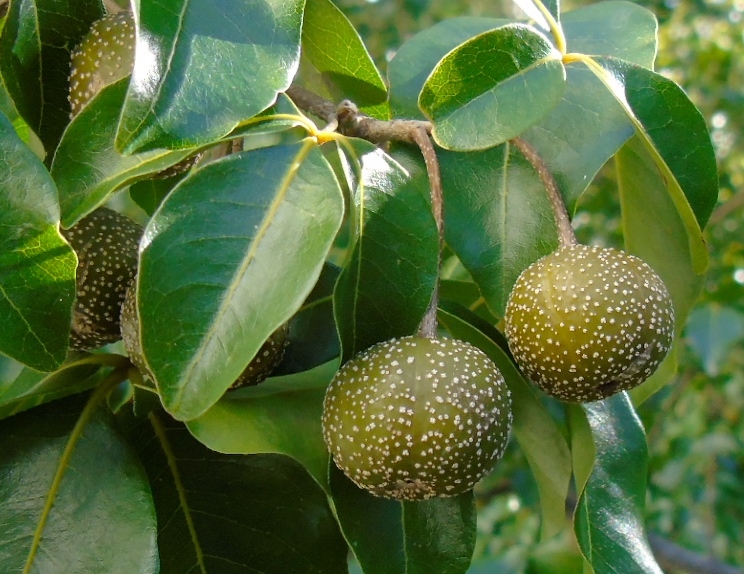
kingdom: Plantae
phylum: Tracheophyta
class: Magnoliopsida
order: Malpighiales
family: Picrodendraceae
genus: Piranhea
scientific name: Piranhea mexicana
